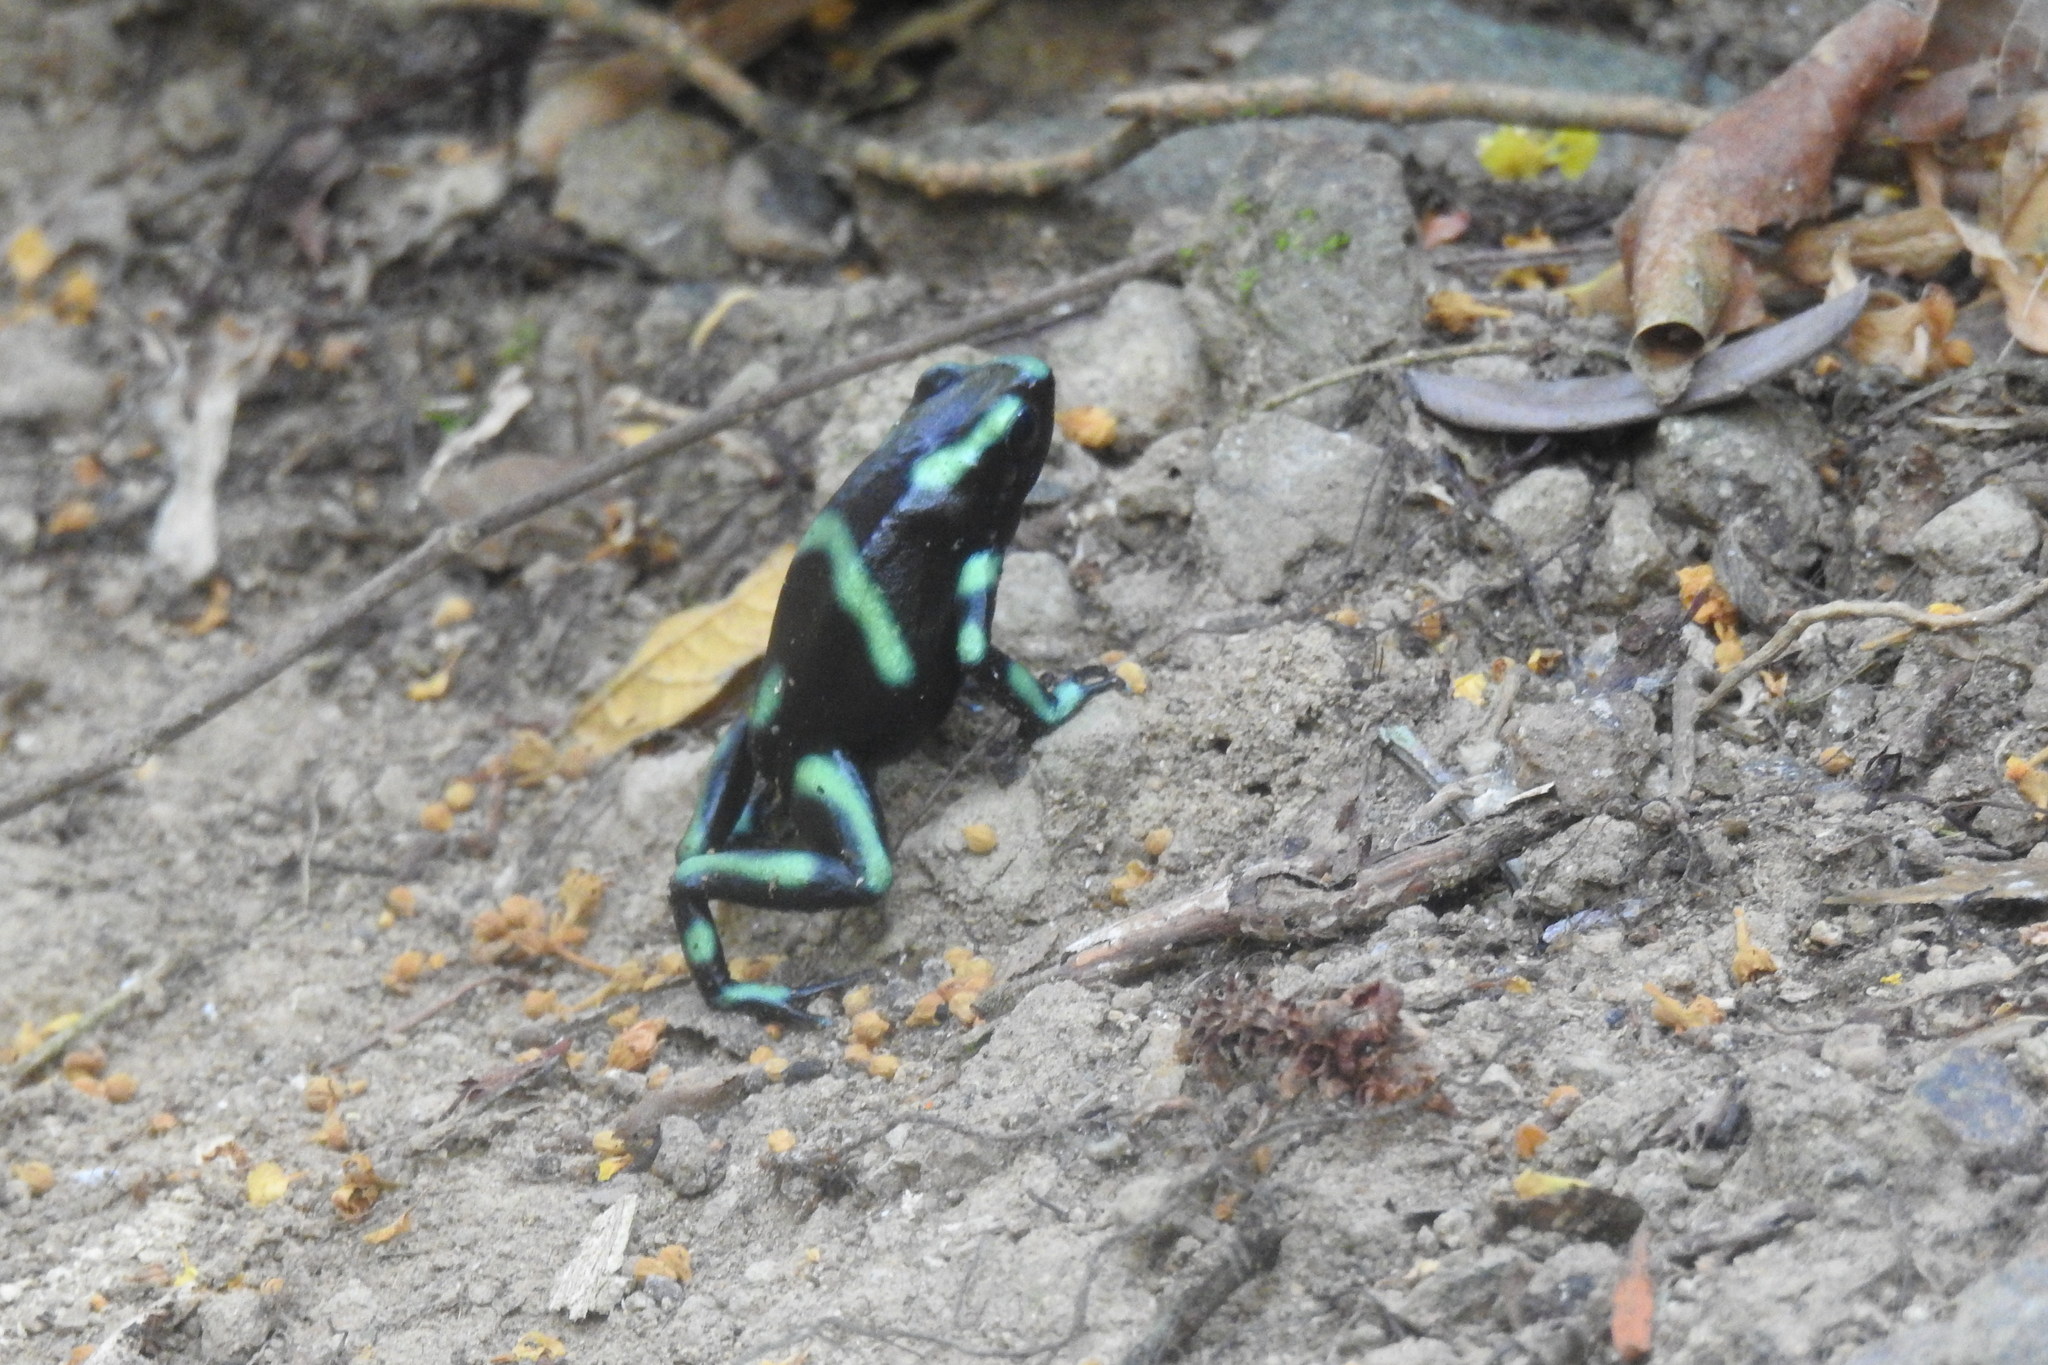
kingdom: Animalia
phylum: Chordata
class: Amphibia
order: Anura
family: Dendrobatidae
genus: Dendrobates
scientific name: Dendrobates auratus
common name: Green and black poison dart frog
